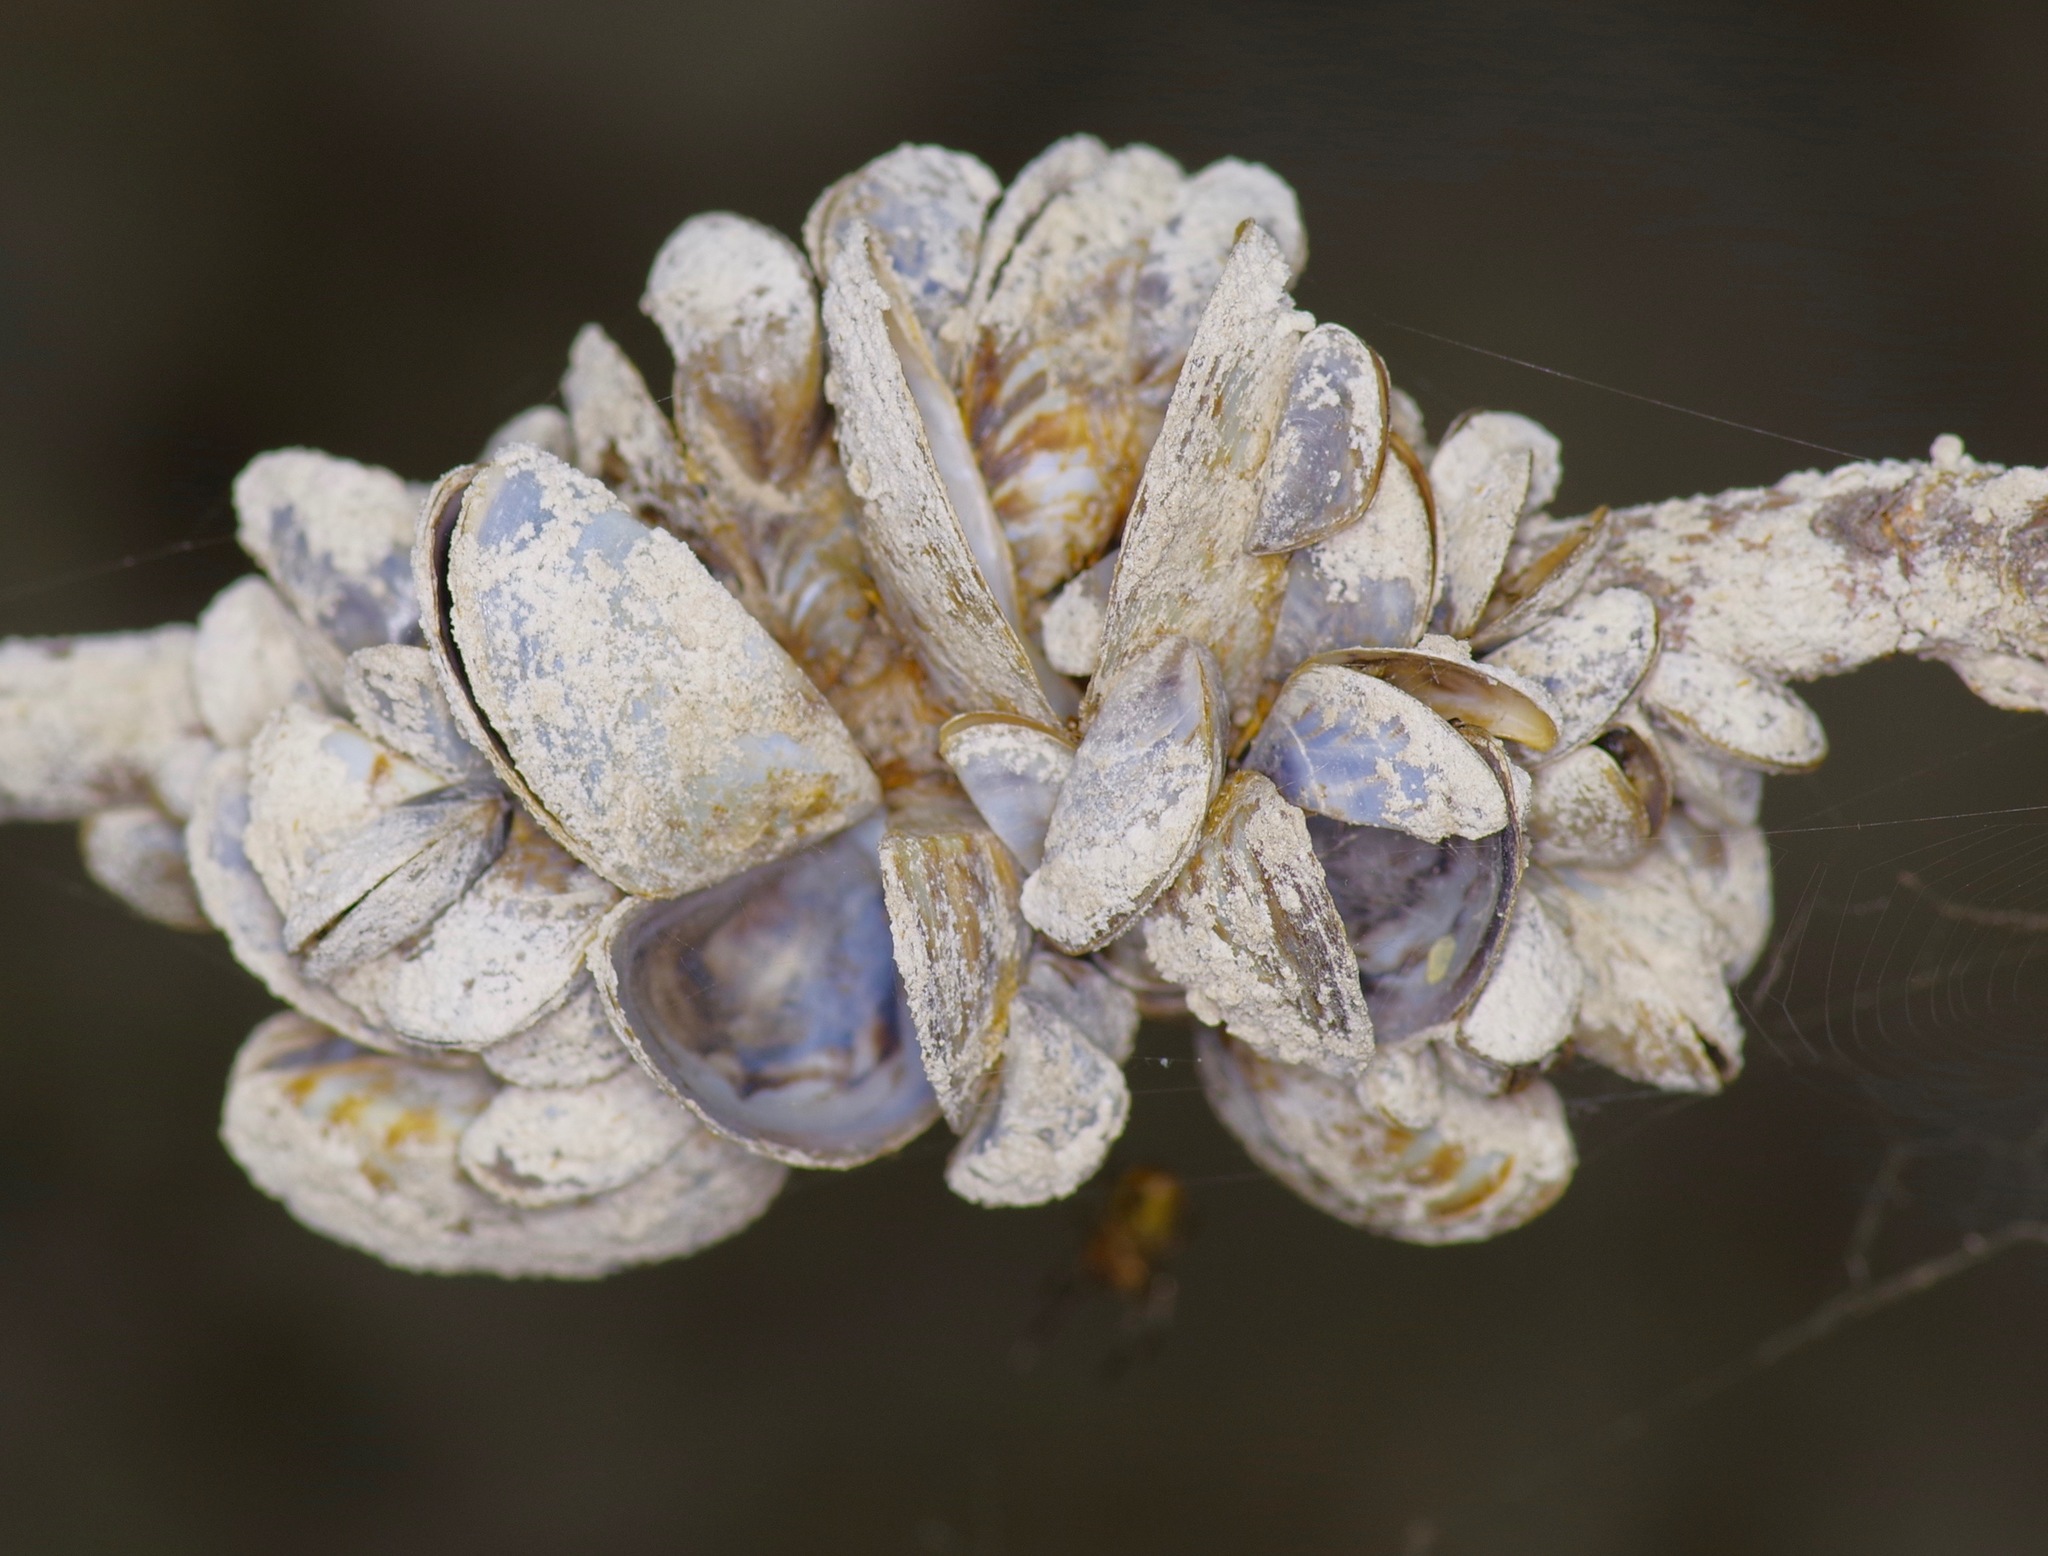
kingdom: Animalia
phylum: Mollusca
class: Bivalvia
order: Myida
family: Dreissenidae
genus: Dreissena
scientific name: Dreissena polymorpha
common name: Zebra mussel
